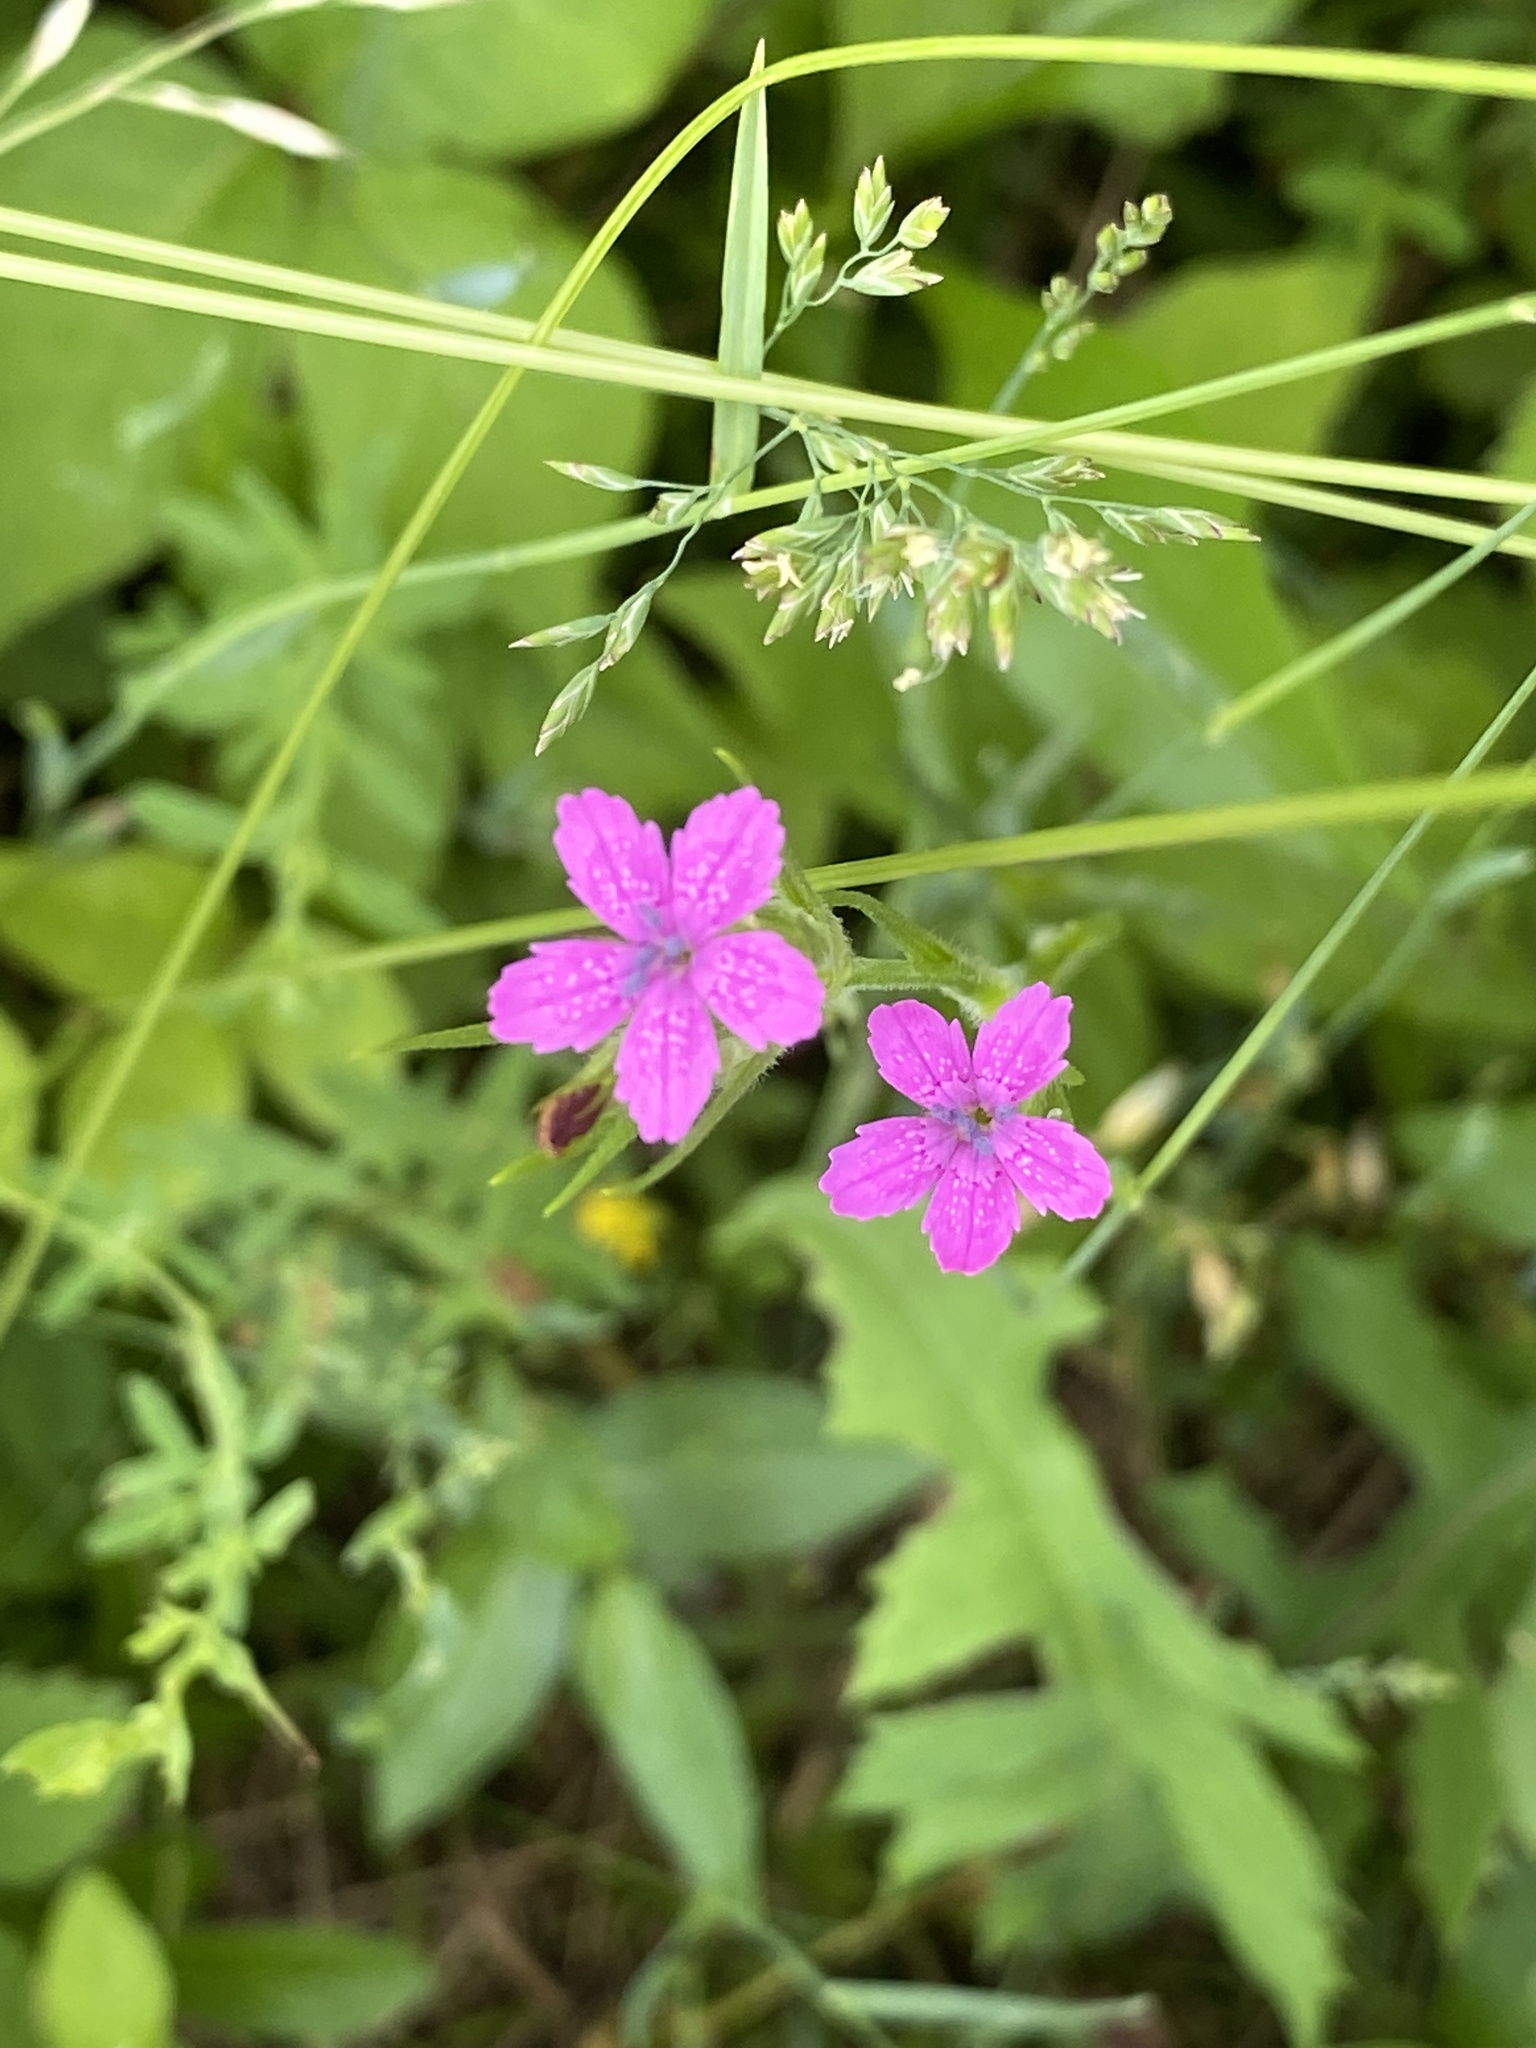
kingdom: Plantae
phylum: Tracheophyta
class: Magnoliopsida
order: Caryophyllales
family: Caryophyllaceae
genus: Dianthus
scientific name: Dianthus armeria
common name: Deptford pink
